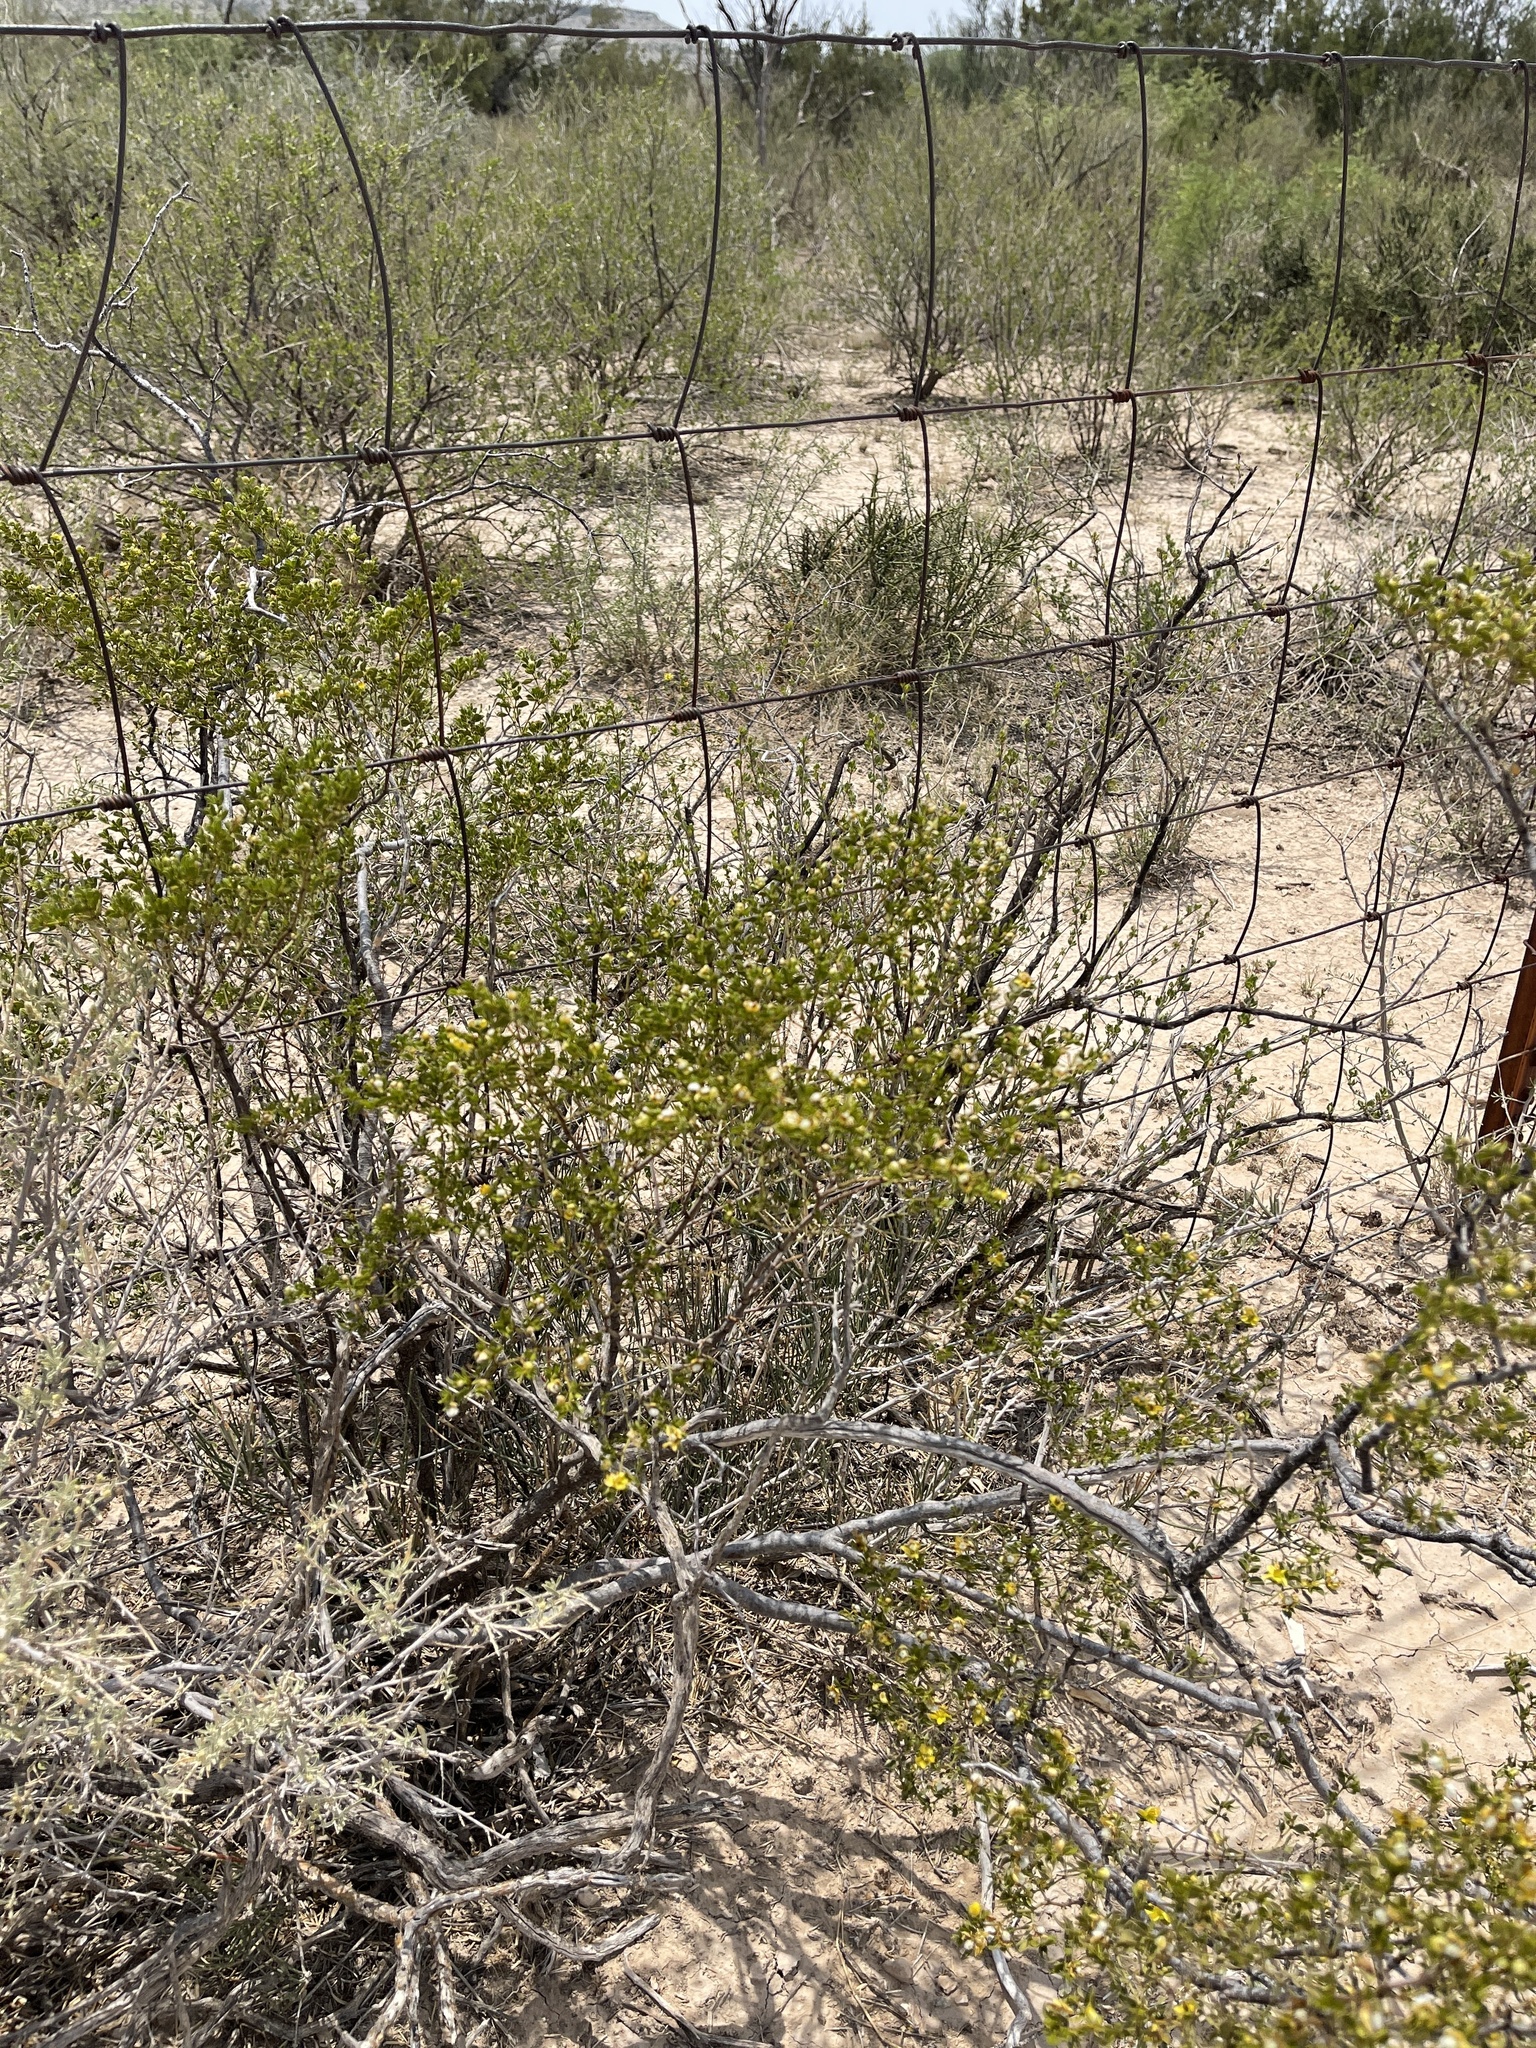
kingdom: Plantae
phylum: Tracheophyta
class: Magnoliopsida
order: Zygophyllales
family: Zygophyllaceae
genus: Larrea
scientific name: Larrea tridentata
